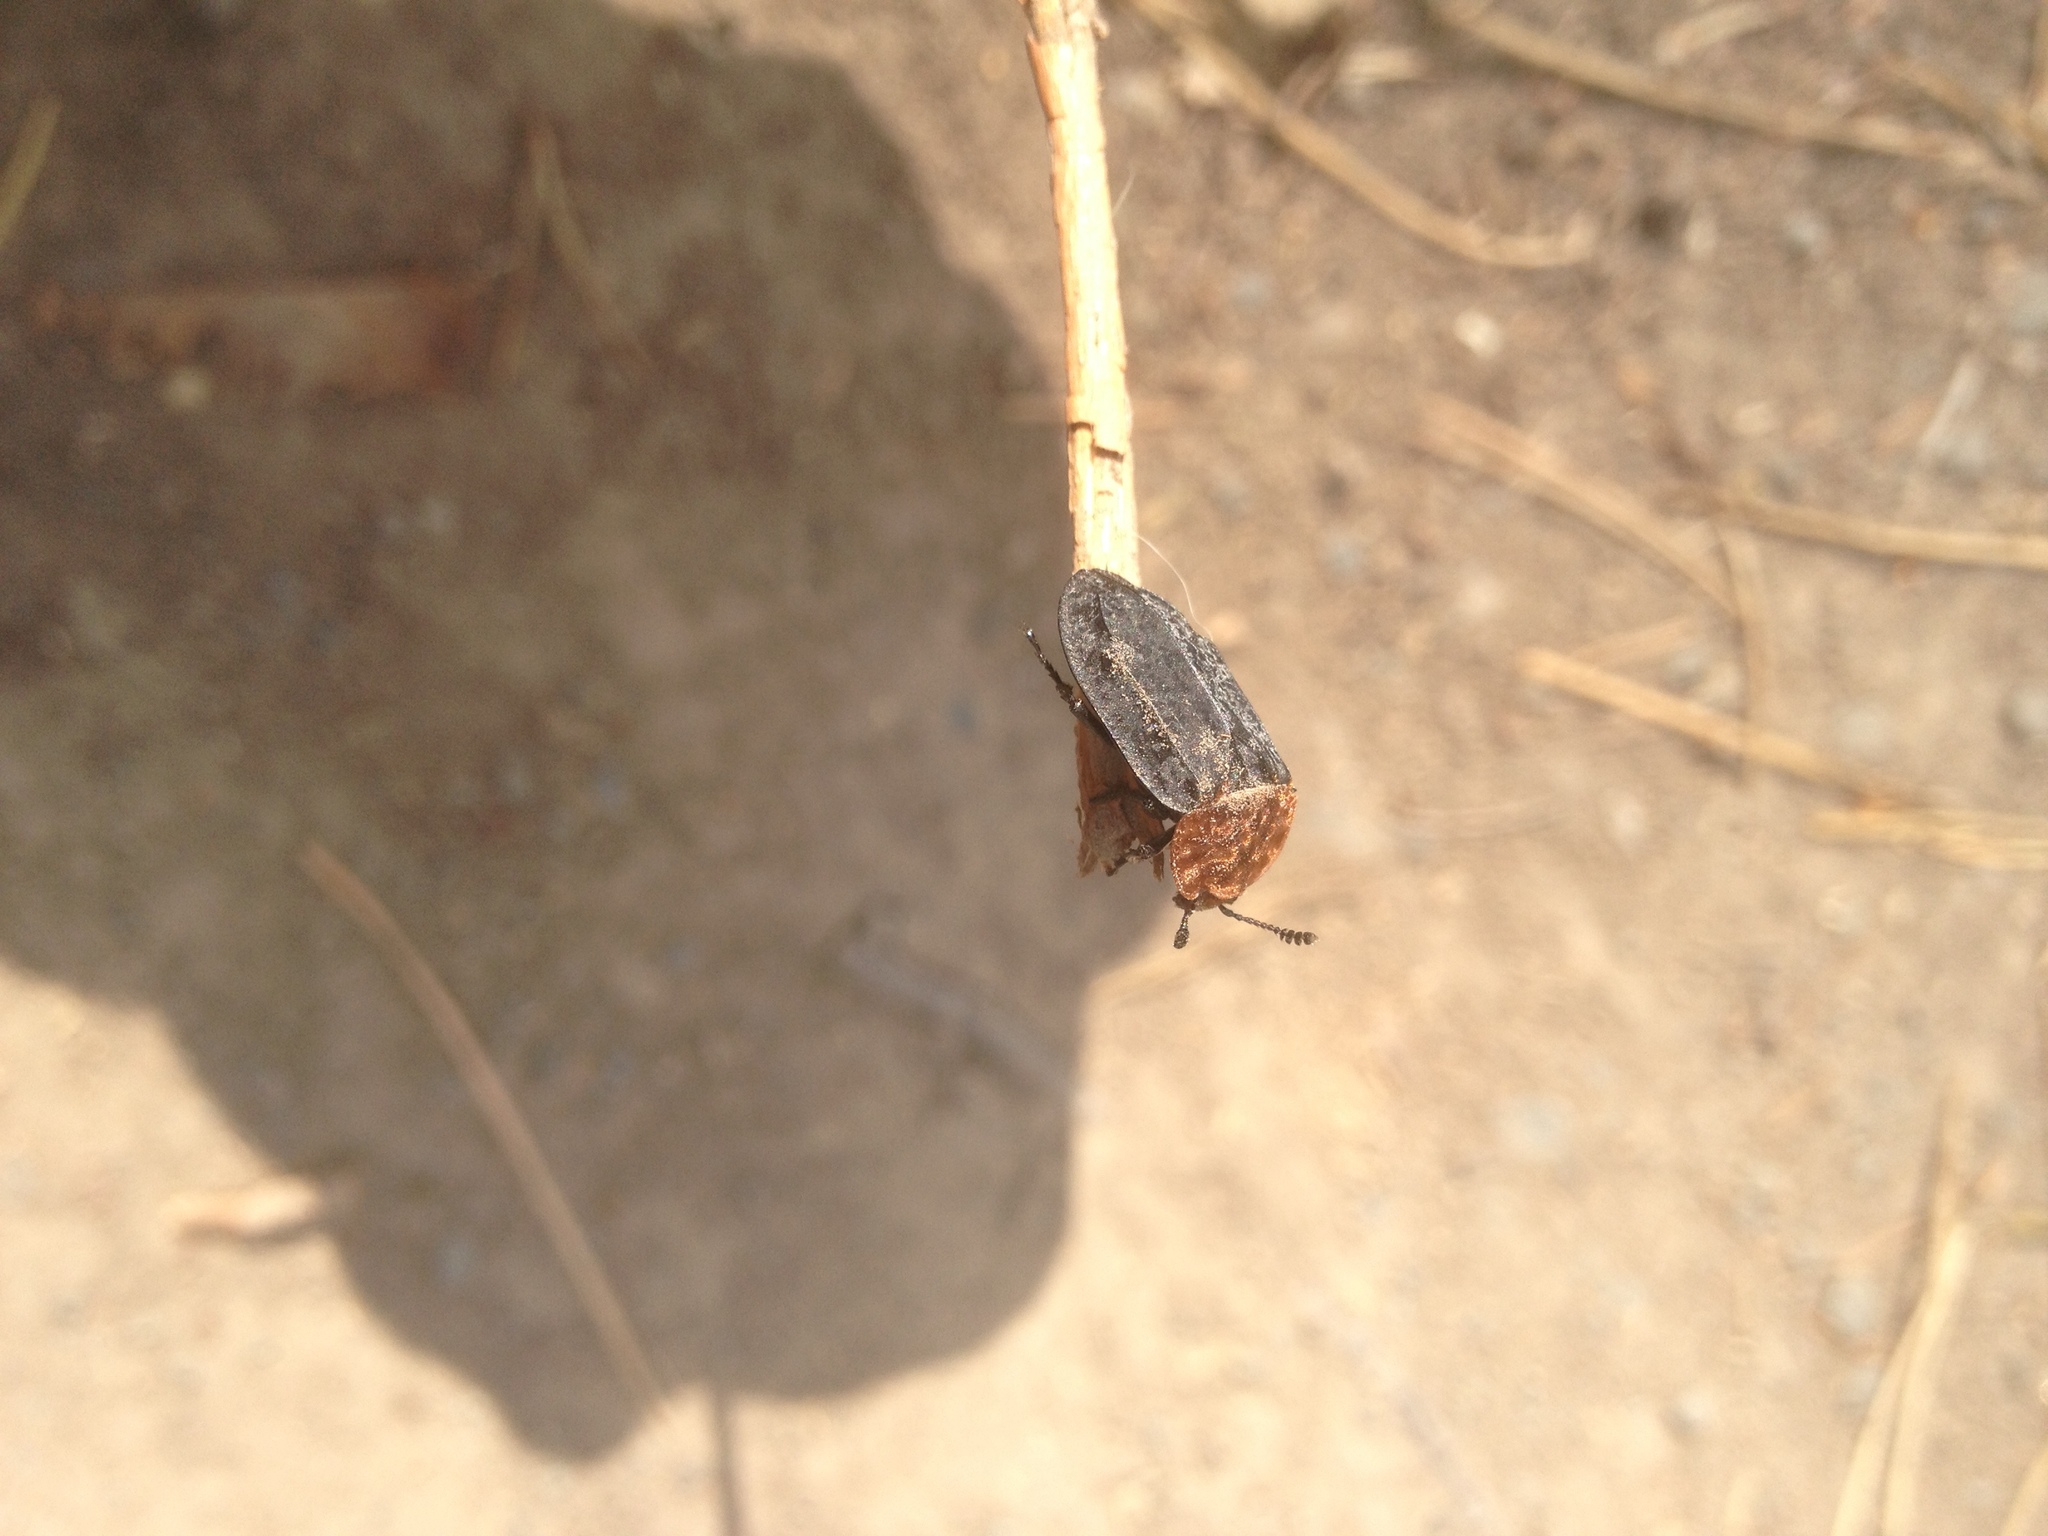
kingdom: Animalia
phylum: Arthropoda
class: Insecta
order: Coleoptera
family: Staphylinidae
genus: Oiceoptoma
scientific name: Oiceoptoma thoracicum
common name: Red-breasted carrion beetle
